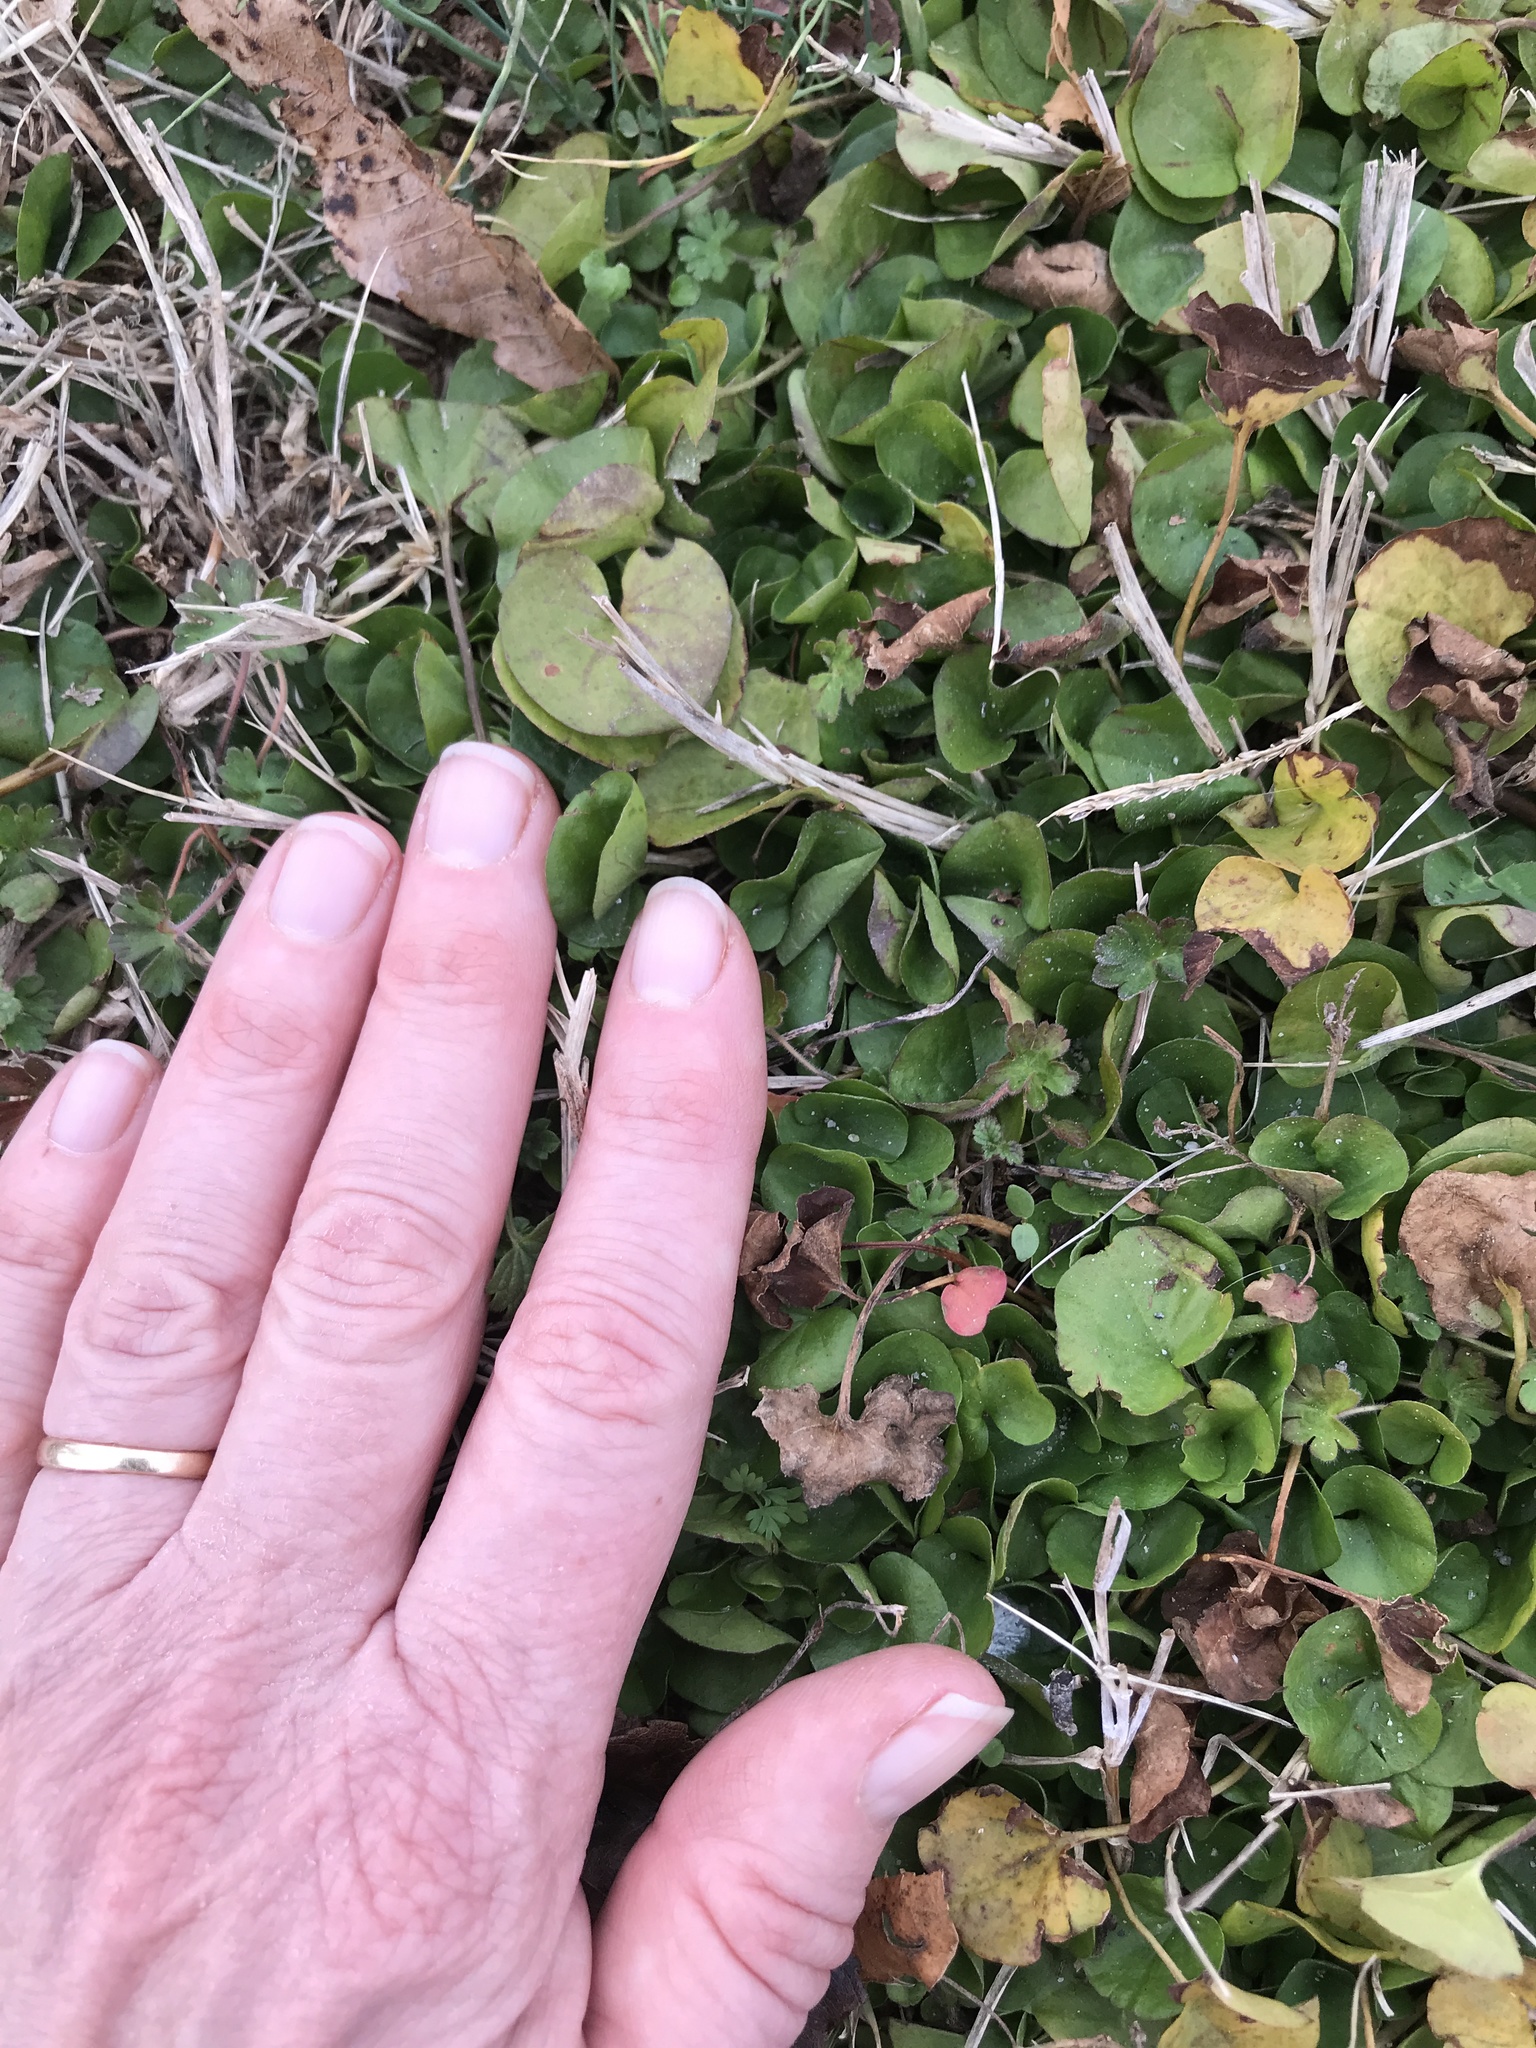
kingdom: Plantae
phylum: Tracheophyta
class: Magnoliopsida
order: Solanales
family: Convolvulaceae
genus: Dichondra
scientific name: Dichondra carolinensis
